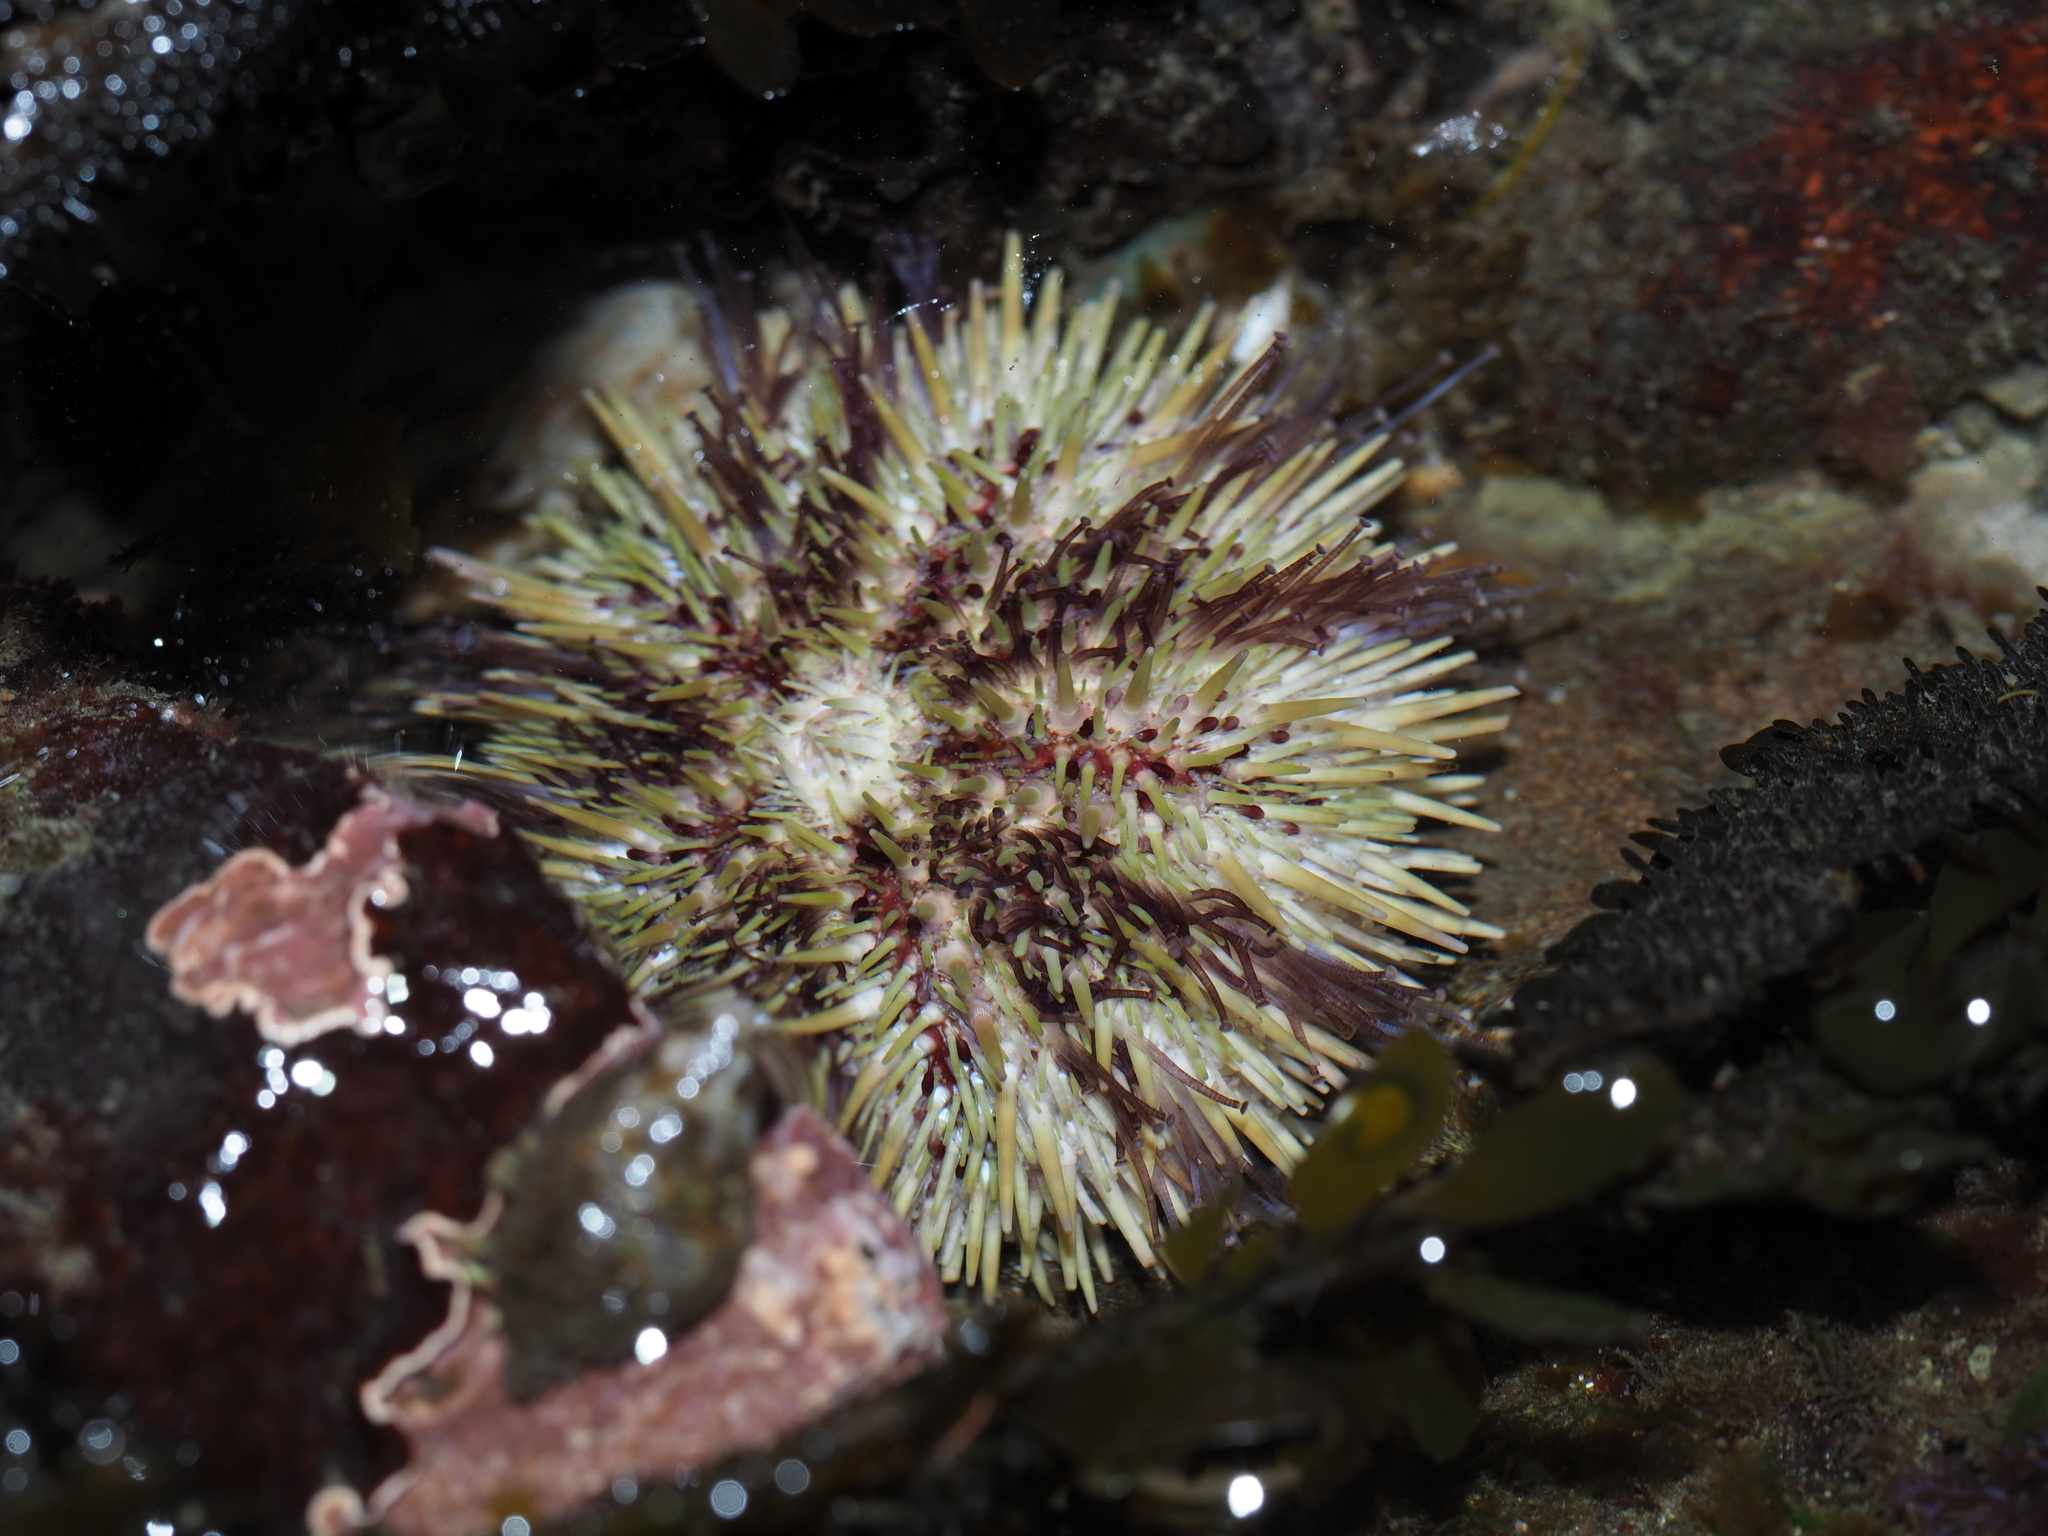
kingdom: Animalia
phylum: Echinodermata
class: Echinoidea
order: Camarodonta
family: Strongylocentrotidae
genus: Strongylocentrotus
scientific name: Strongylocentrotus droebachiensis
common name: Northern sea urchin
